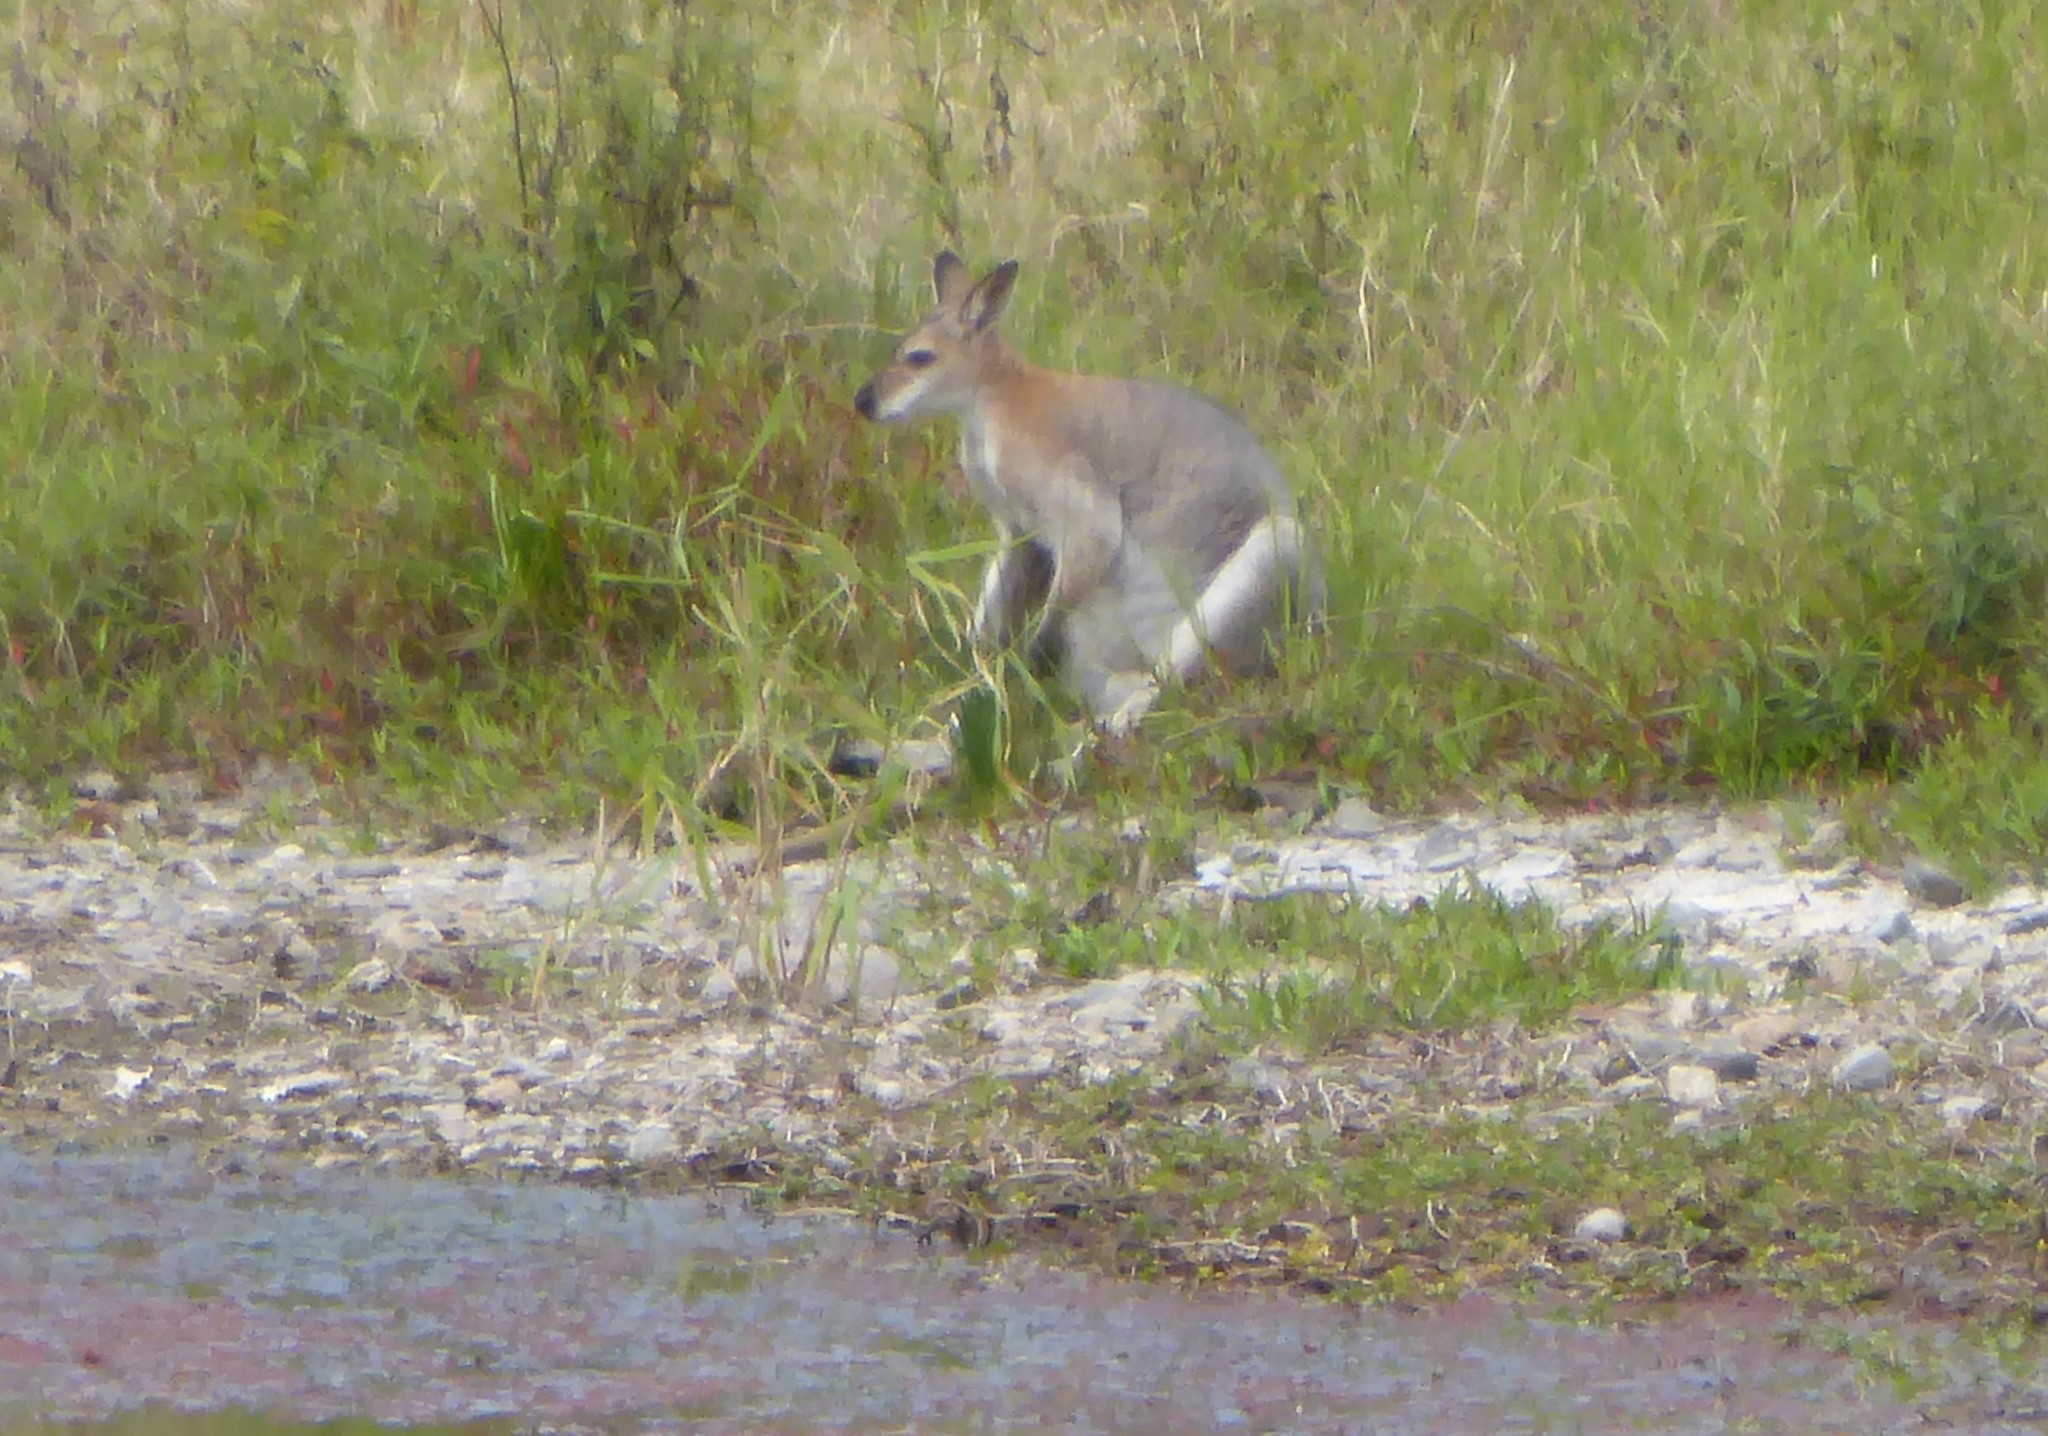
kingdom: Animalia
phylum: Chordata
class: Mammalia
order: Diprotodontia
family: Macropodidae
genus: Notamacropus
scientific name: Notamacropus rufogriseus
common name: Red-necked wallaby
